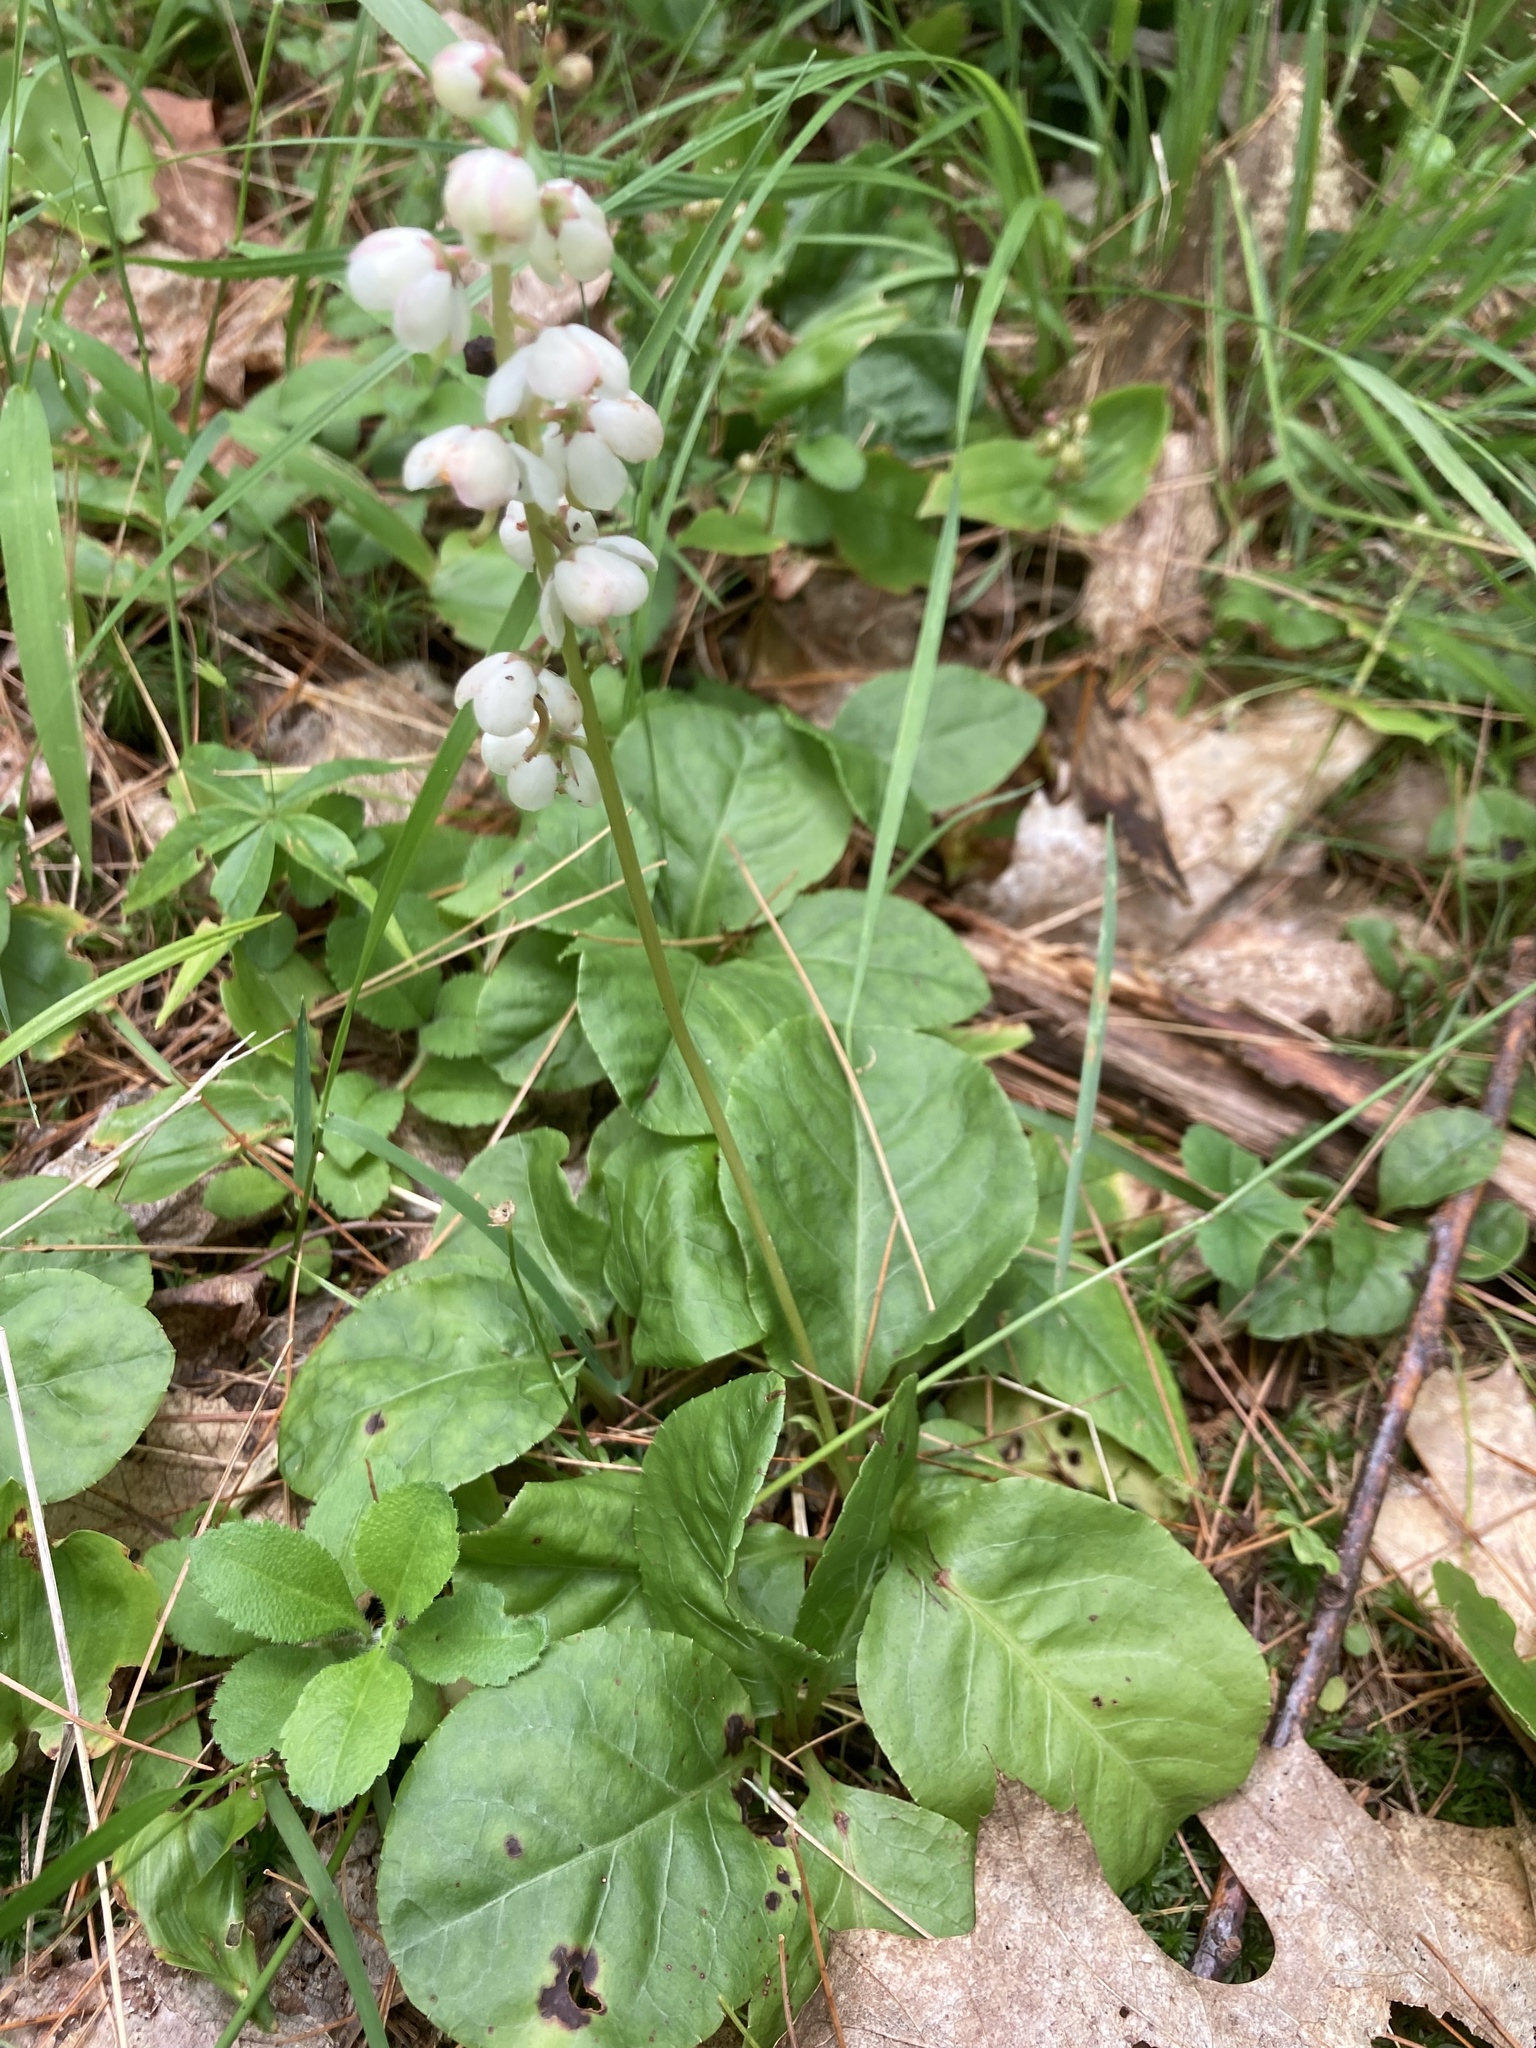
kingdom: Plantae
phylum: Tracheophyta
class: Magnoliopsida
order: Ericales
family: Ericaceae
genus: Pyrola
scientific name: Pyrola elliptica
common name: Shinleaf
